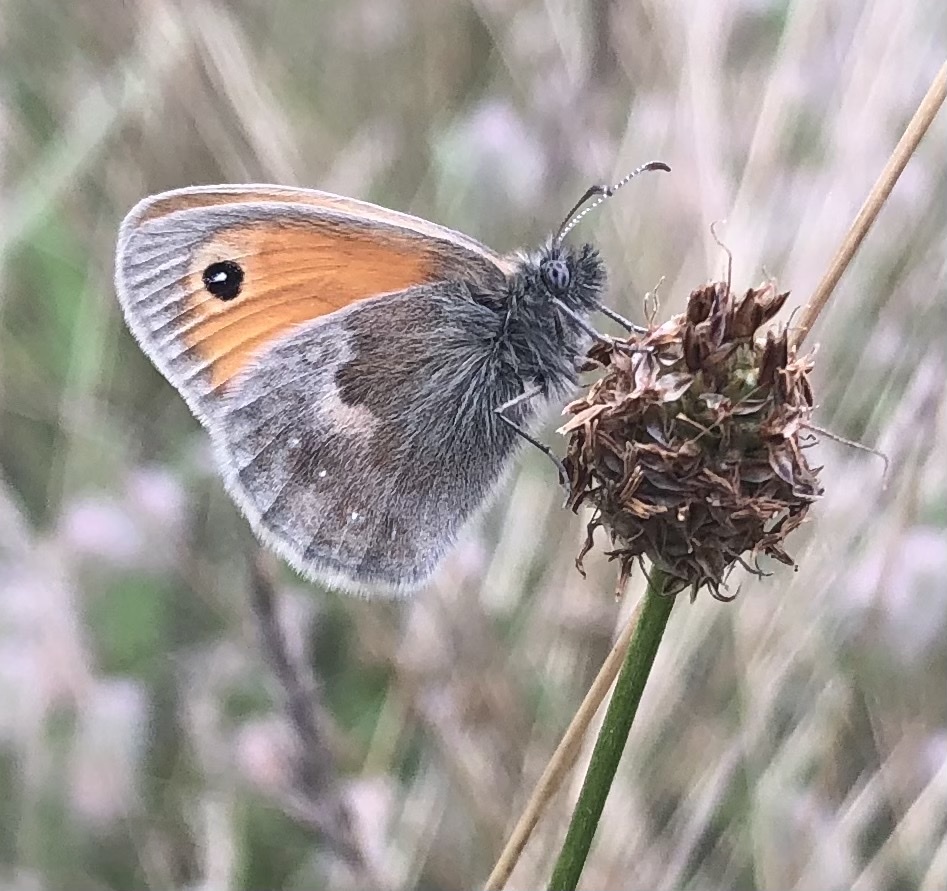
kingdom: Animalia
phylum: Arthropoda
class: Insecta
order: Lepidoptera
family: Nymphalidae
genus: Coenonympha
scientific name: Coenonympha pamphilus
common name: Small heath
